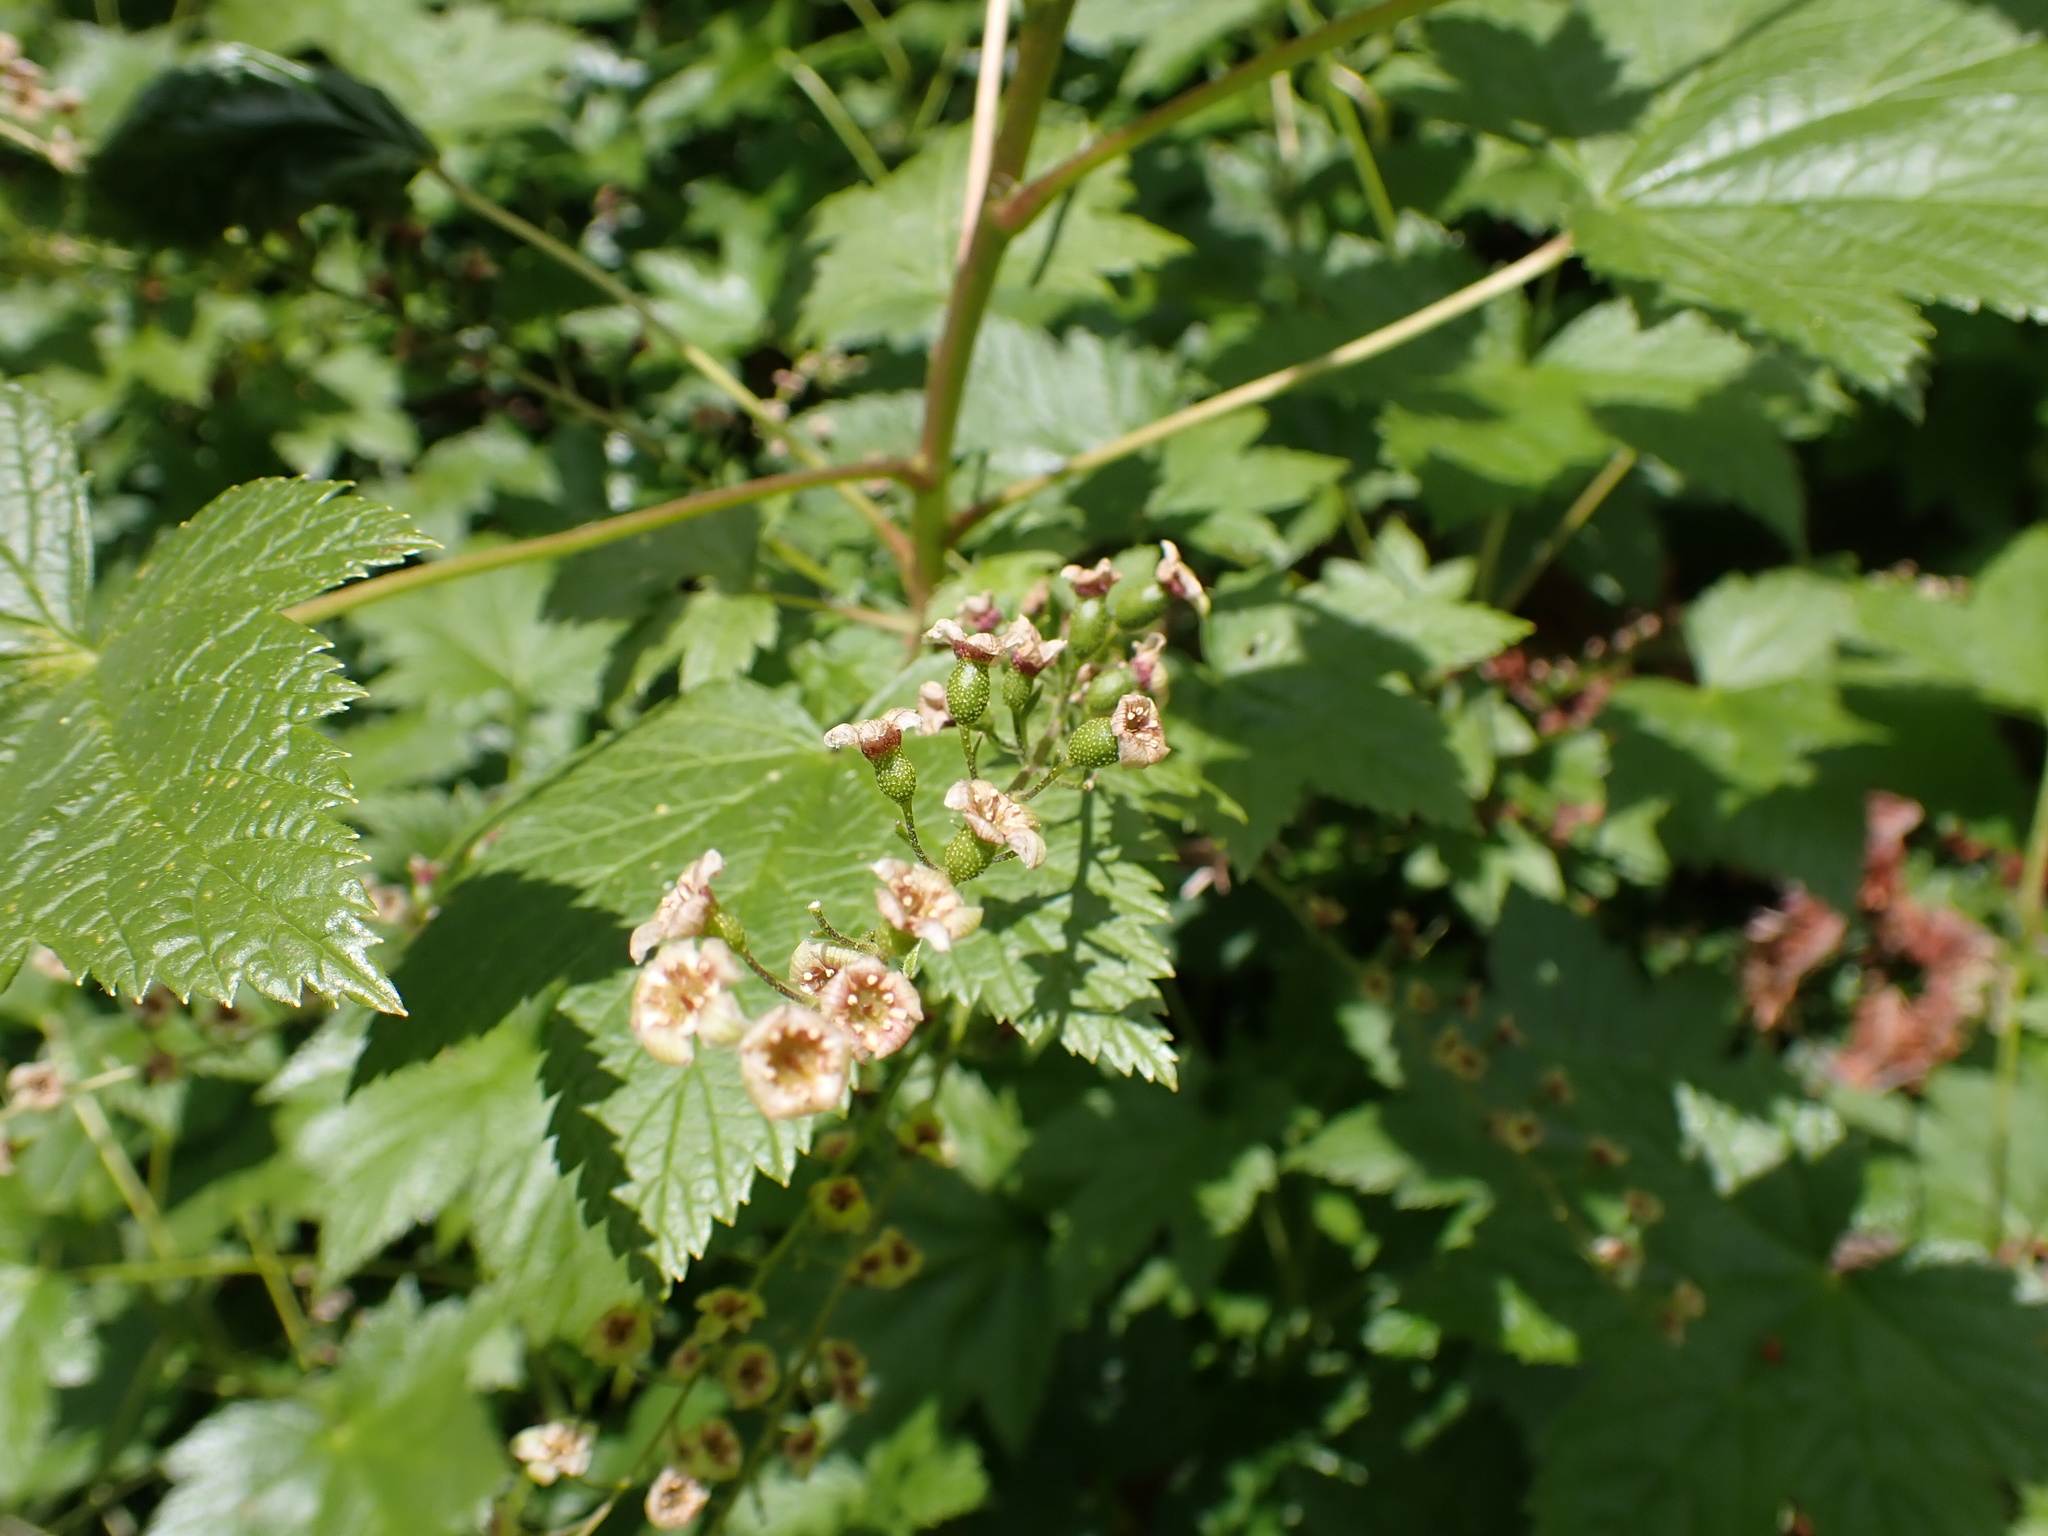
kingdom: Plantae
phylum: Tracheophyta
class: Magnoliopsida
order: Saxifragales
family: Grossulariaceae
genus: Ribes
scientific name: Ribes bracteosum
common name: California black currant
